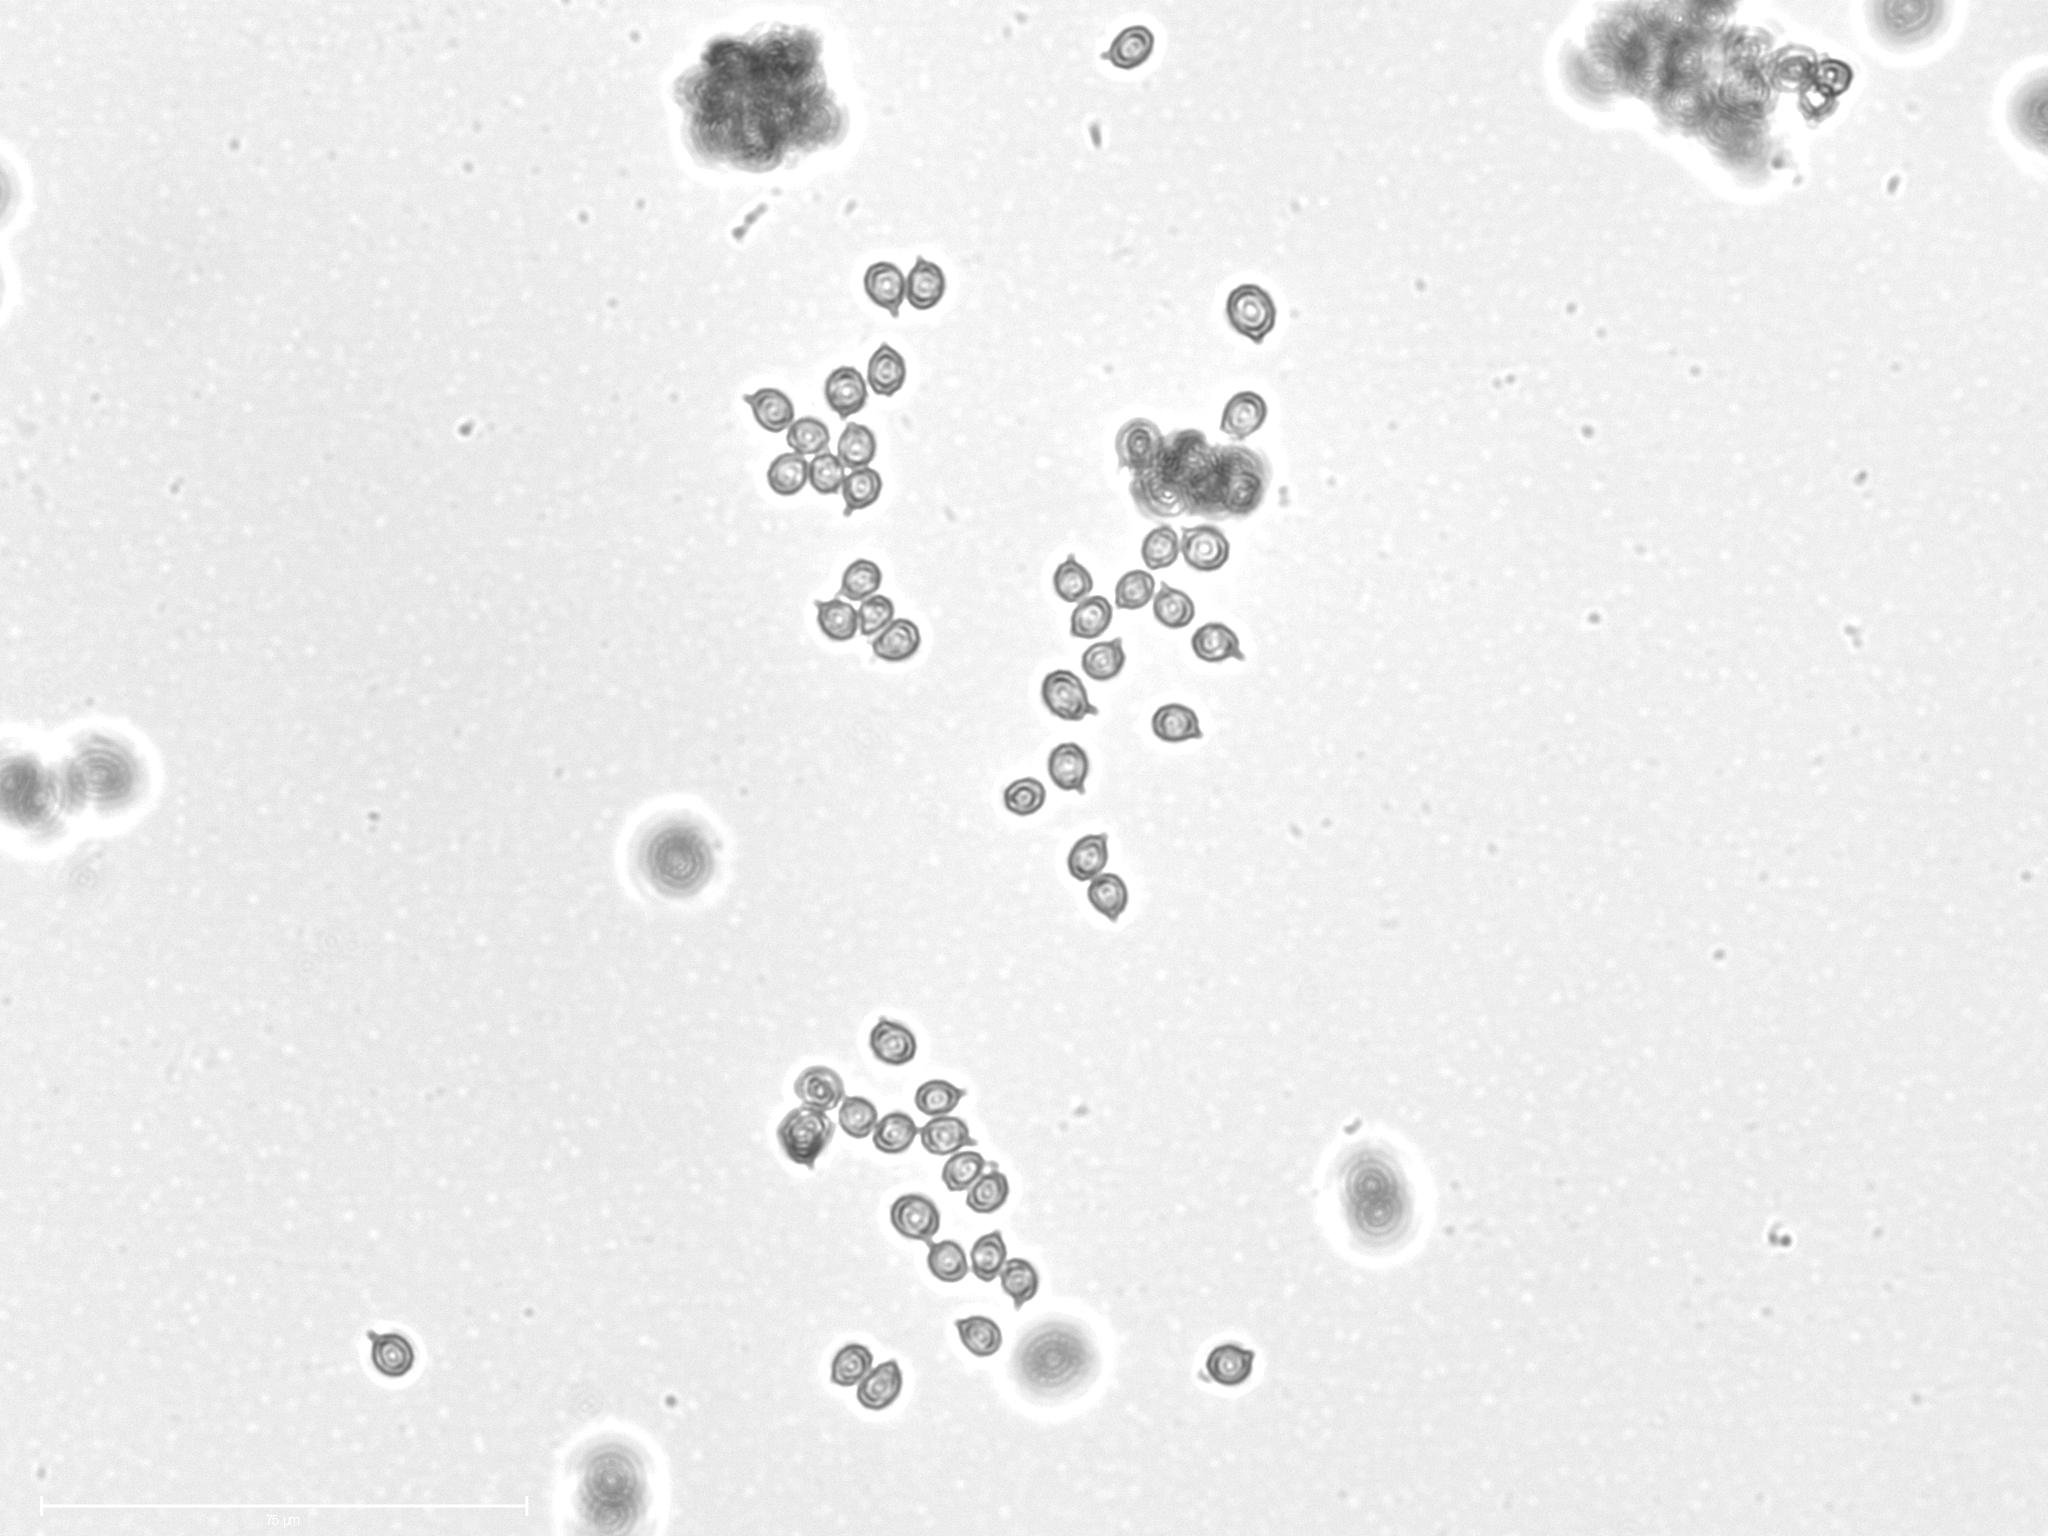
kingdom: Fungi
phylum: Basidiomycota
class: Agaricomycetes
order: Russulales
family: Russulaceae
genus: Russula
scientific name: Russula
